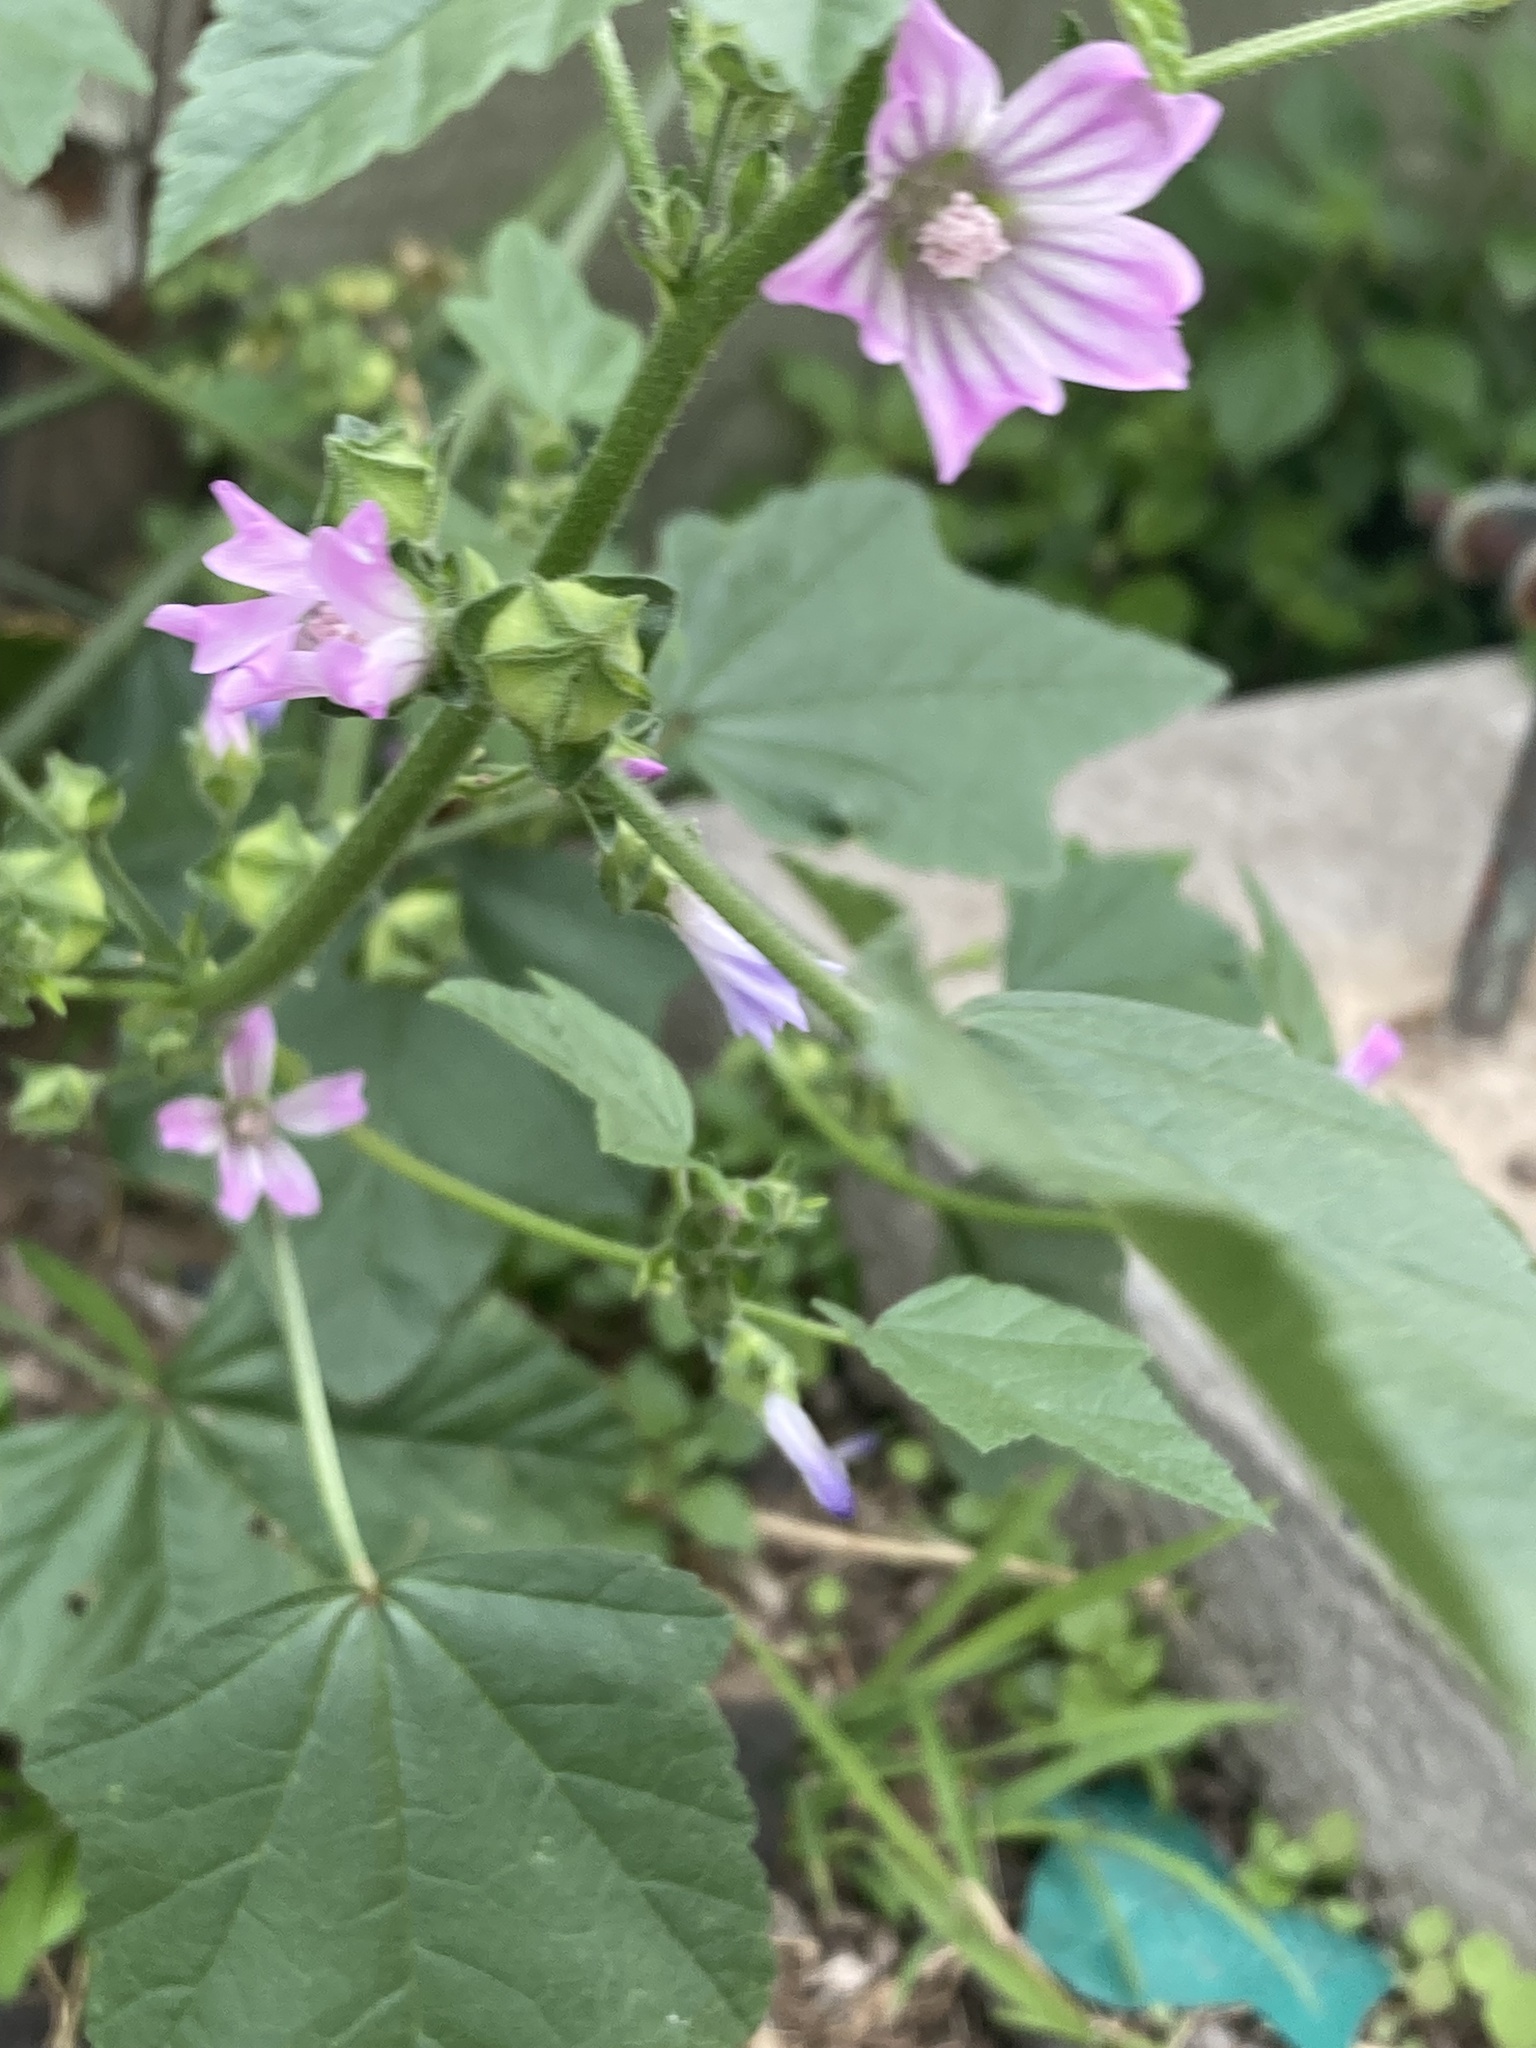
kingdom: Plantae
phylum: Tracheophyta
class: Magnoliopsida
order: Malvales
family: Malvaceae
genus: Malva
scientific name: Malva multiflora
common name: Cheeseweed
